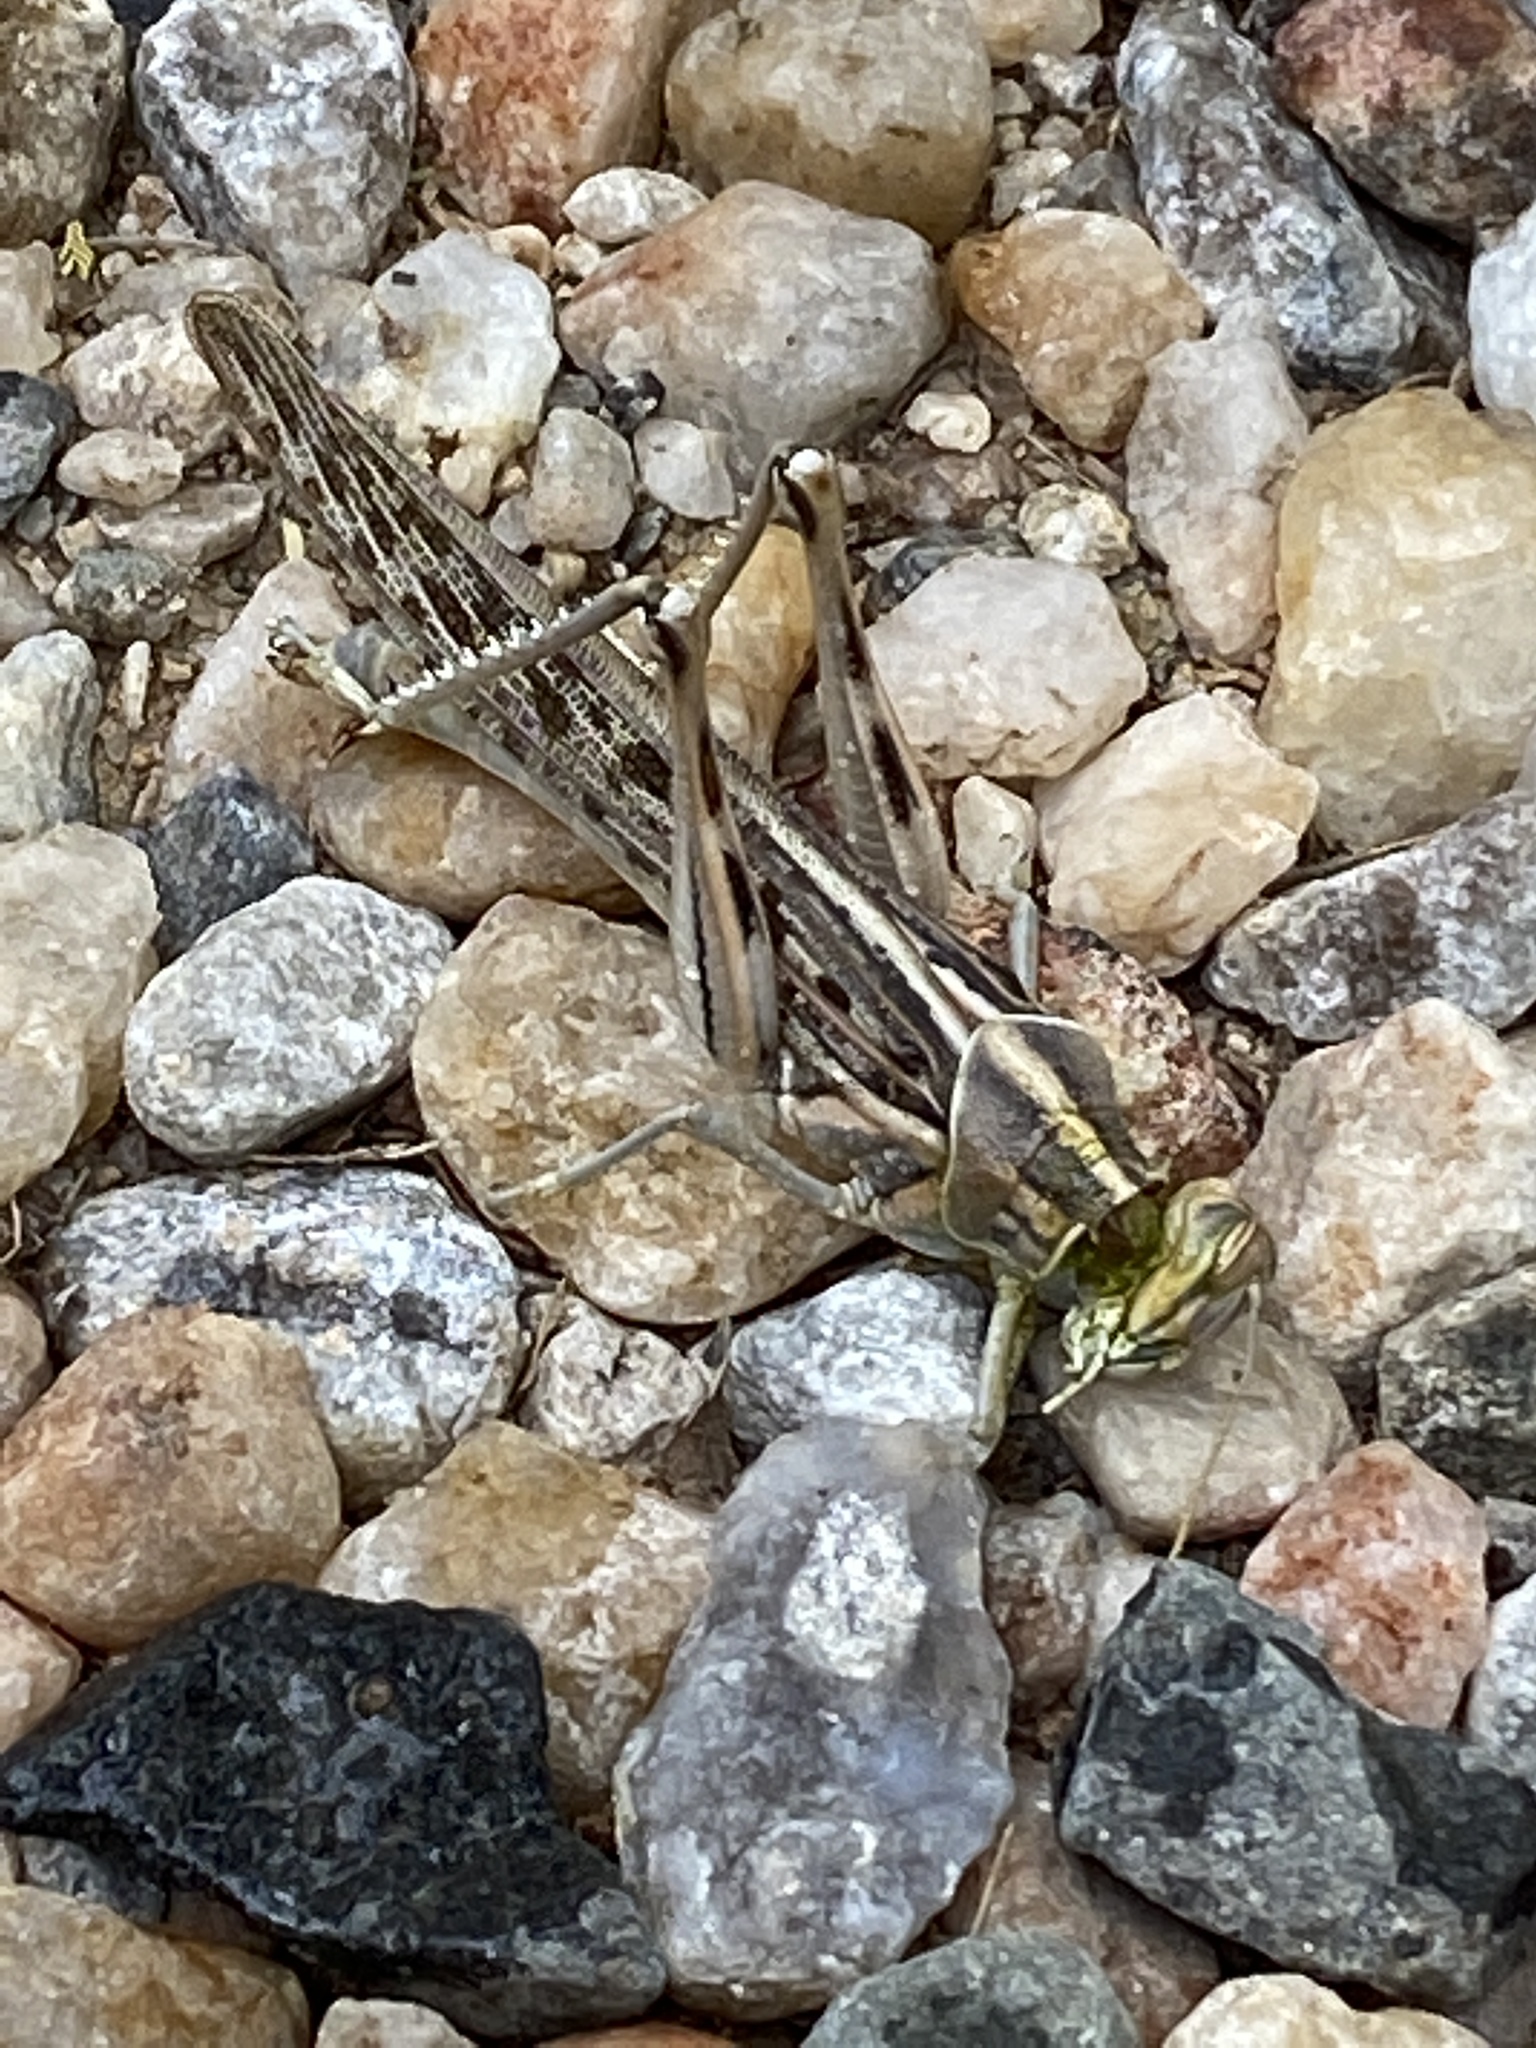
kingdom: Animalia
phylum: Arthropoda
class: Insecta
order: Orthoptera
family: Acrididae
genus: Schistocerca
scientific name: Schistocerca gregaria
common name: Desert locust
